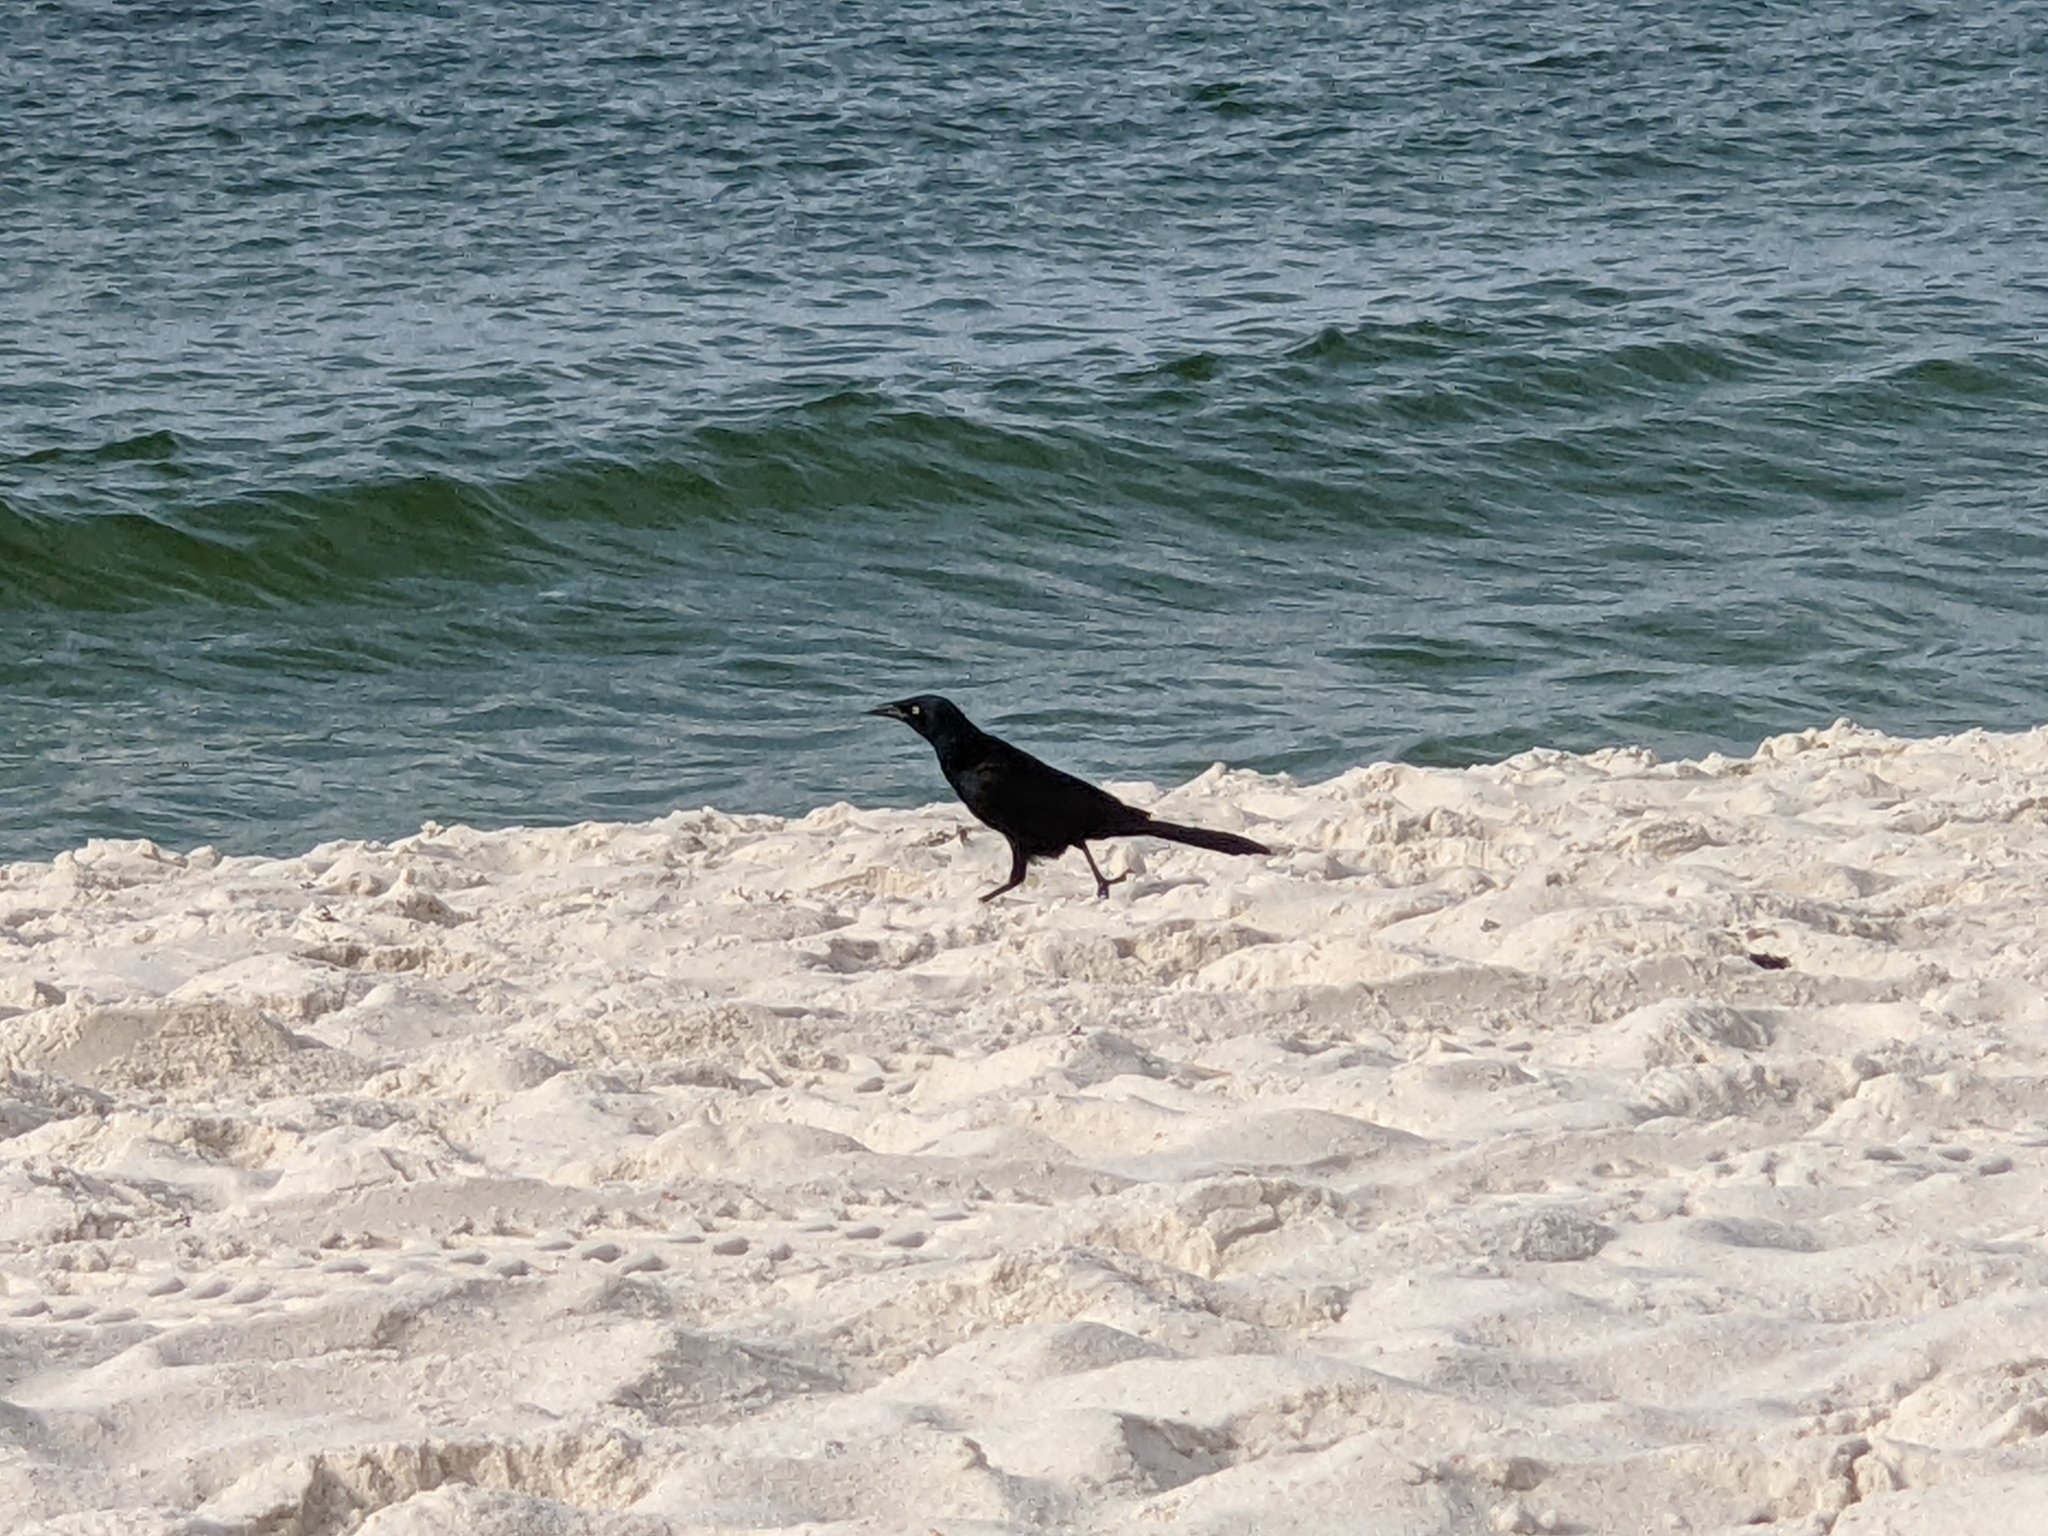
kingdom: Animalia
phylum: Chordata
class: Aves
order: Passeriformes
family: Icteridae
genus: Quiscalus
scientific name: Quiscalus quiscula
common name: Common grackle
